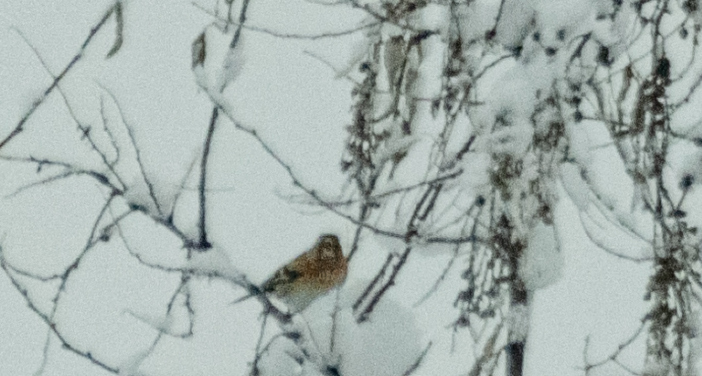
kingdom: Animalia
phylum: Chordata
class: Aves
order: Passeriformes
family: Fringillidae
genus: Fringilla
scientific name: Fringilla montifringilla
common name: Brambling
